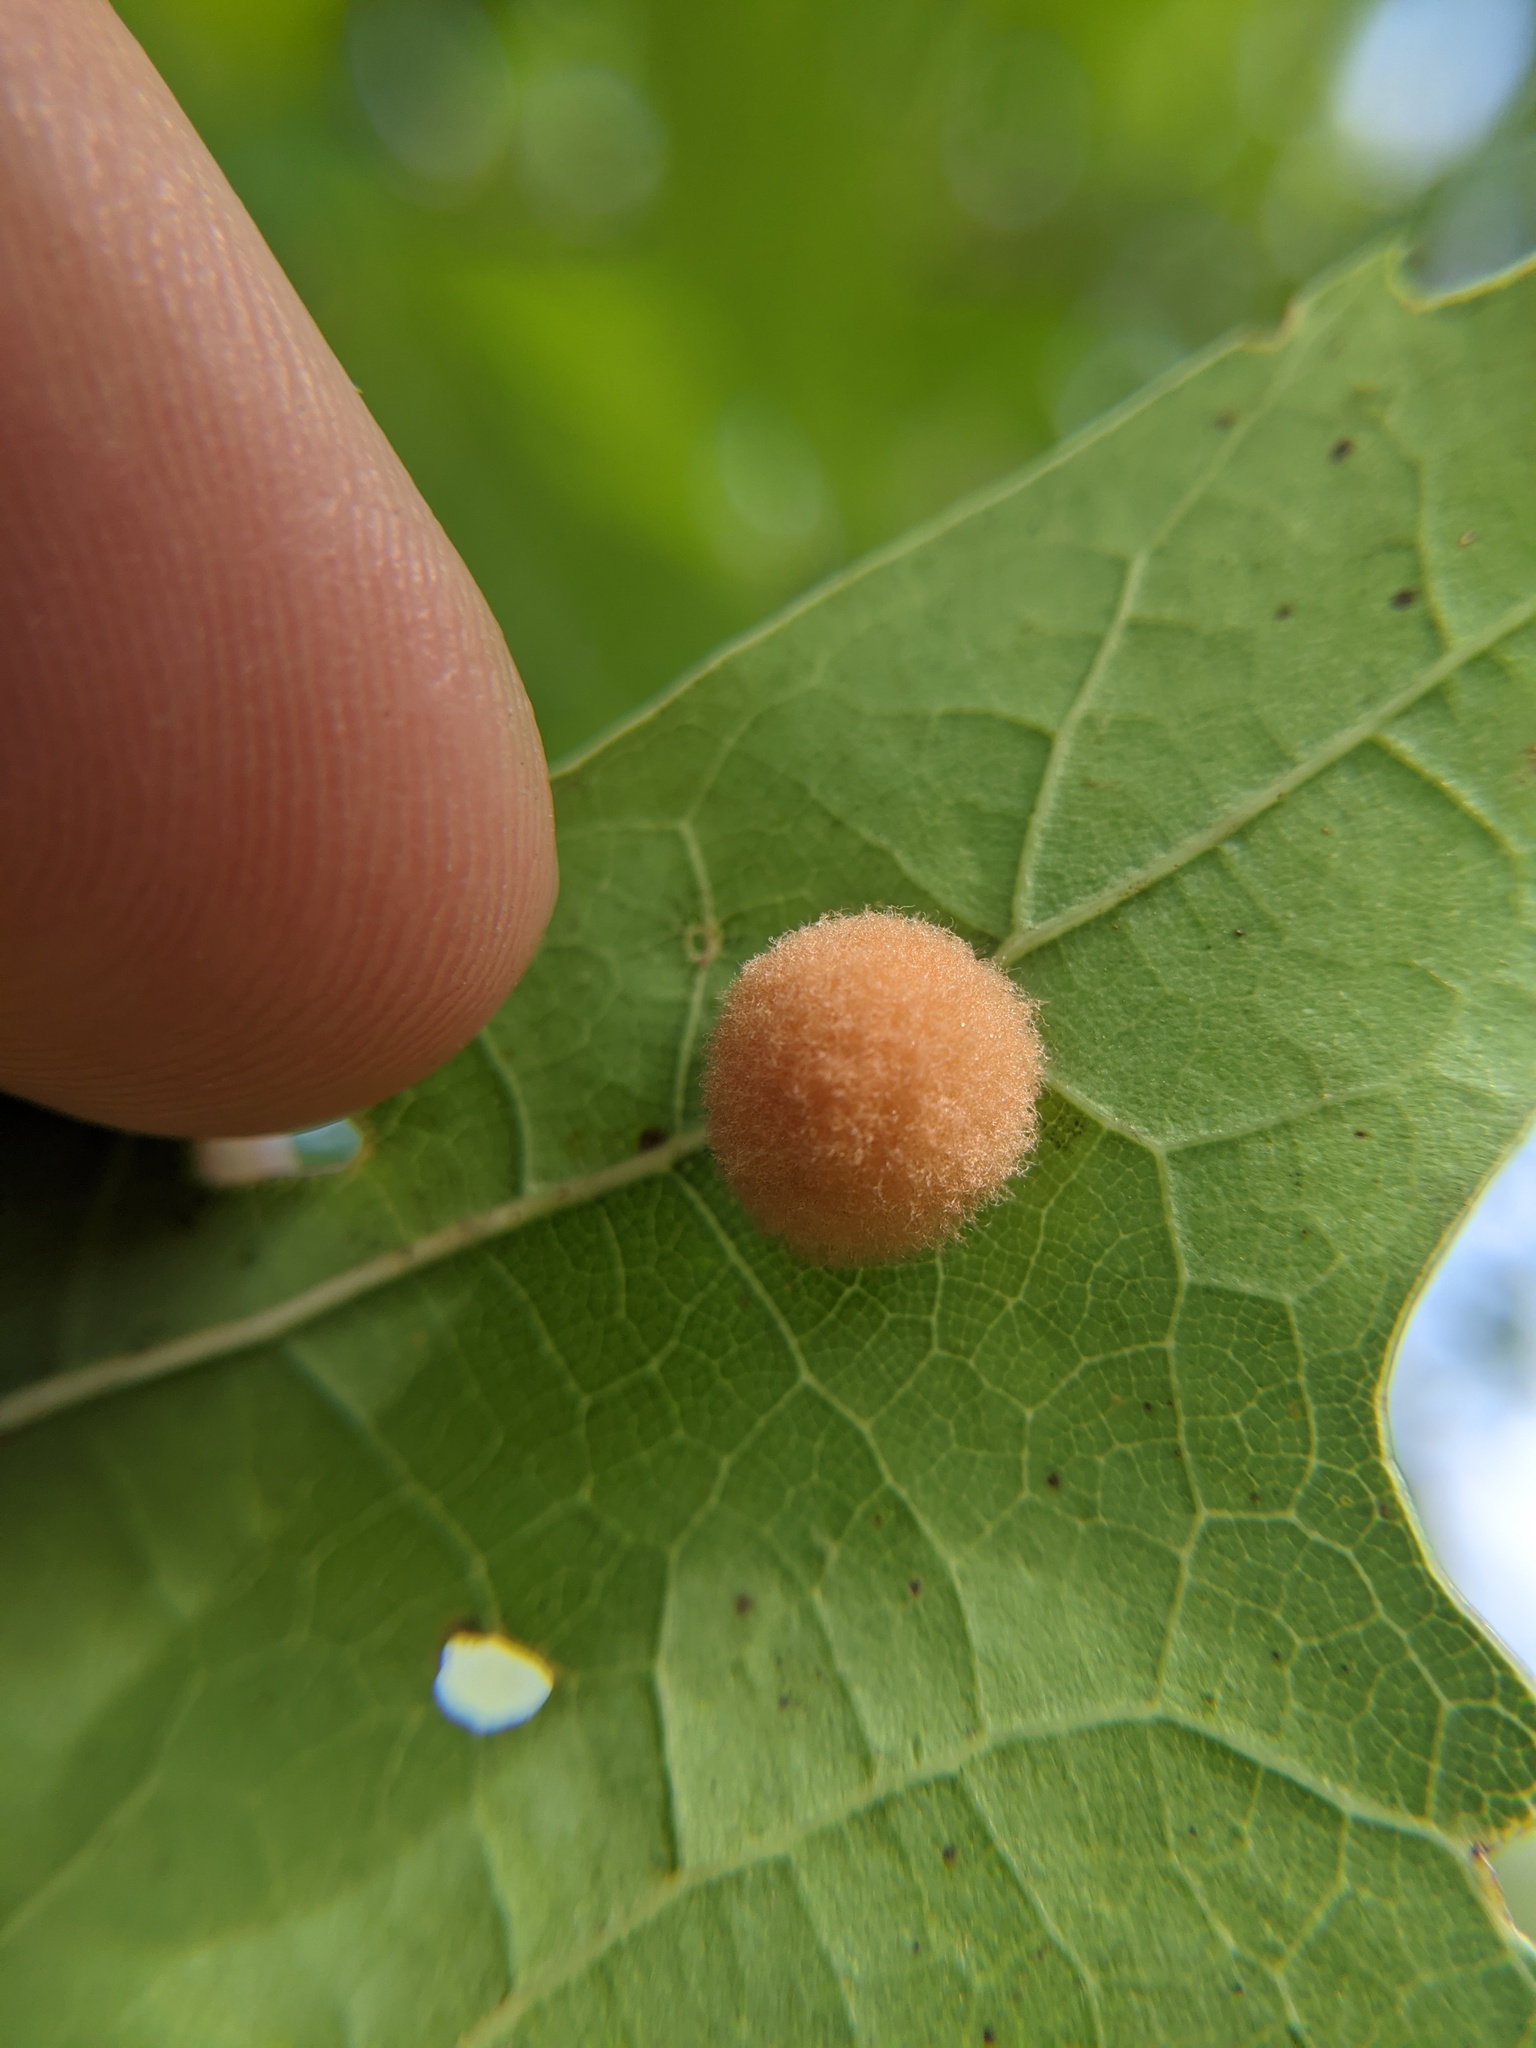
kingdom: Animalia
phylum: Arthropoda
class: Insecta
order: Hymenoptera
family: Cynipidae
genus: Callirhytis
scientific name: Callirhytis
